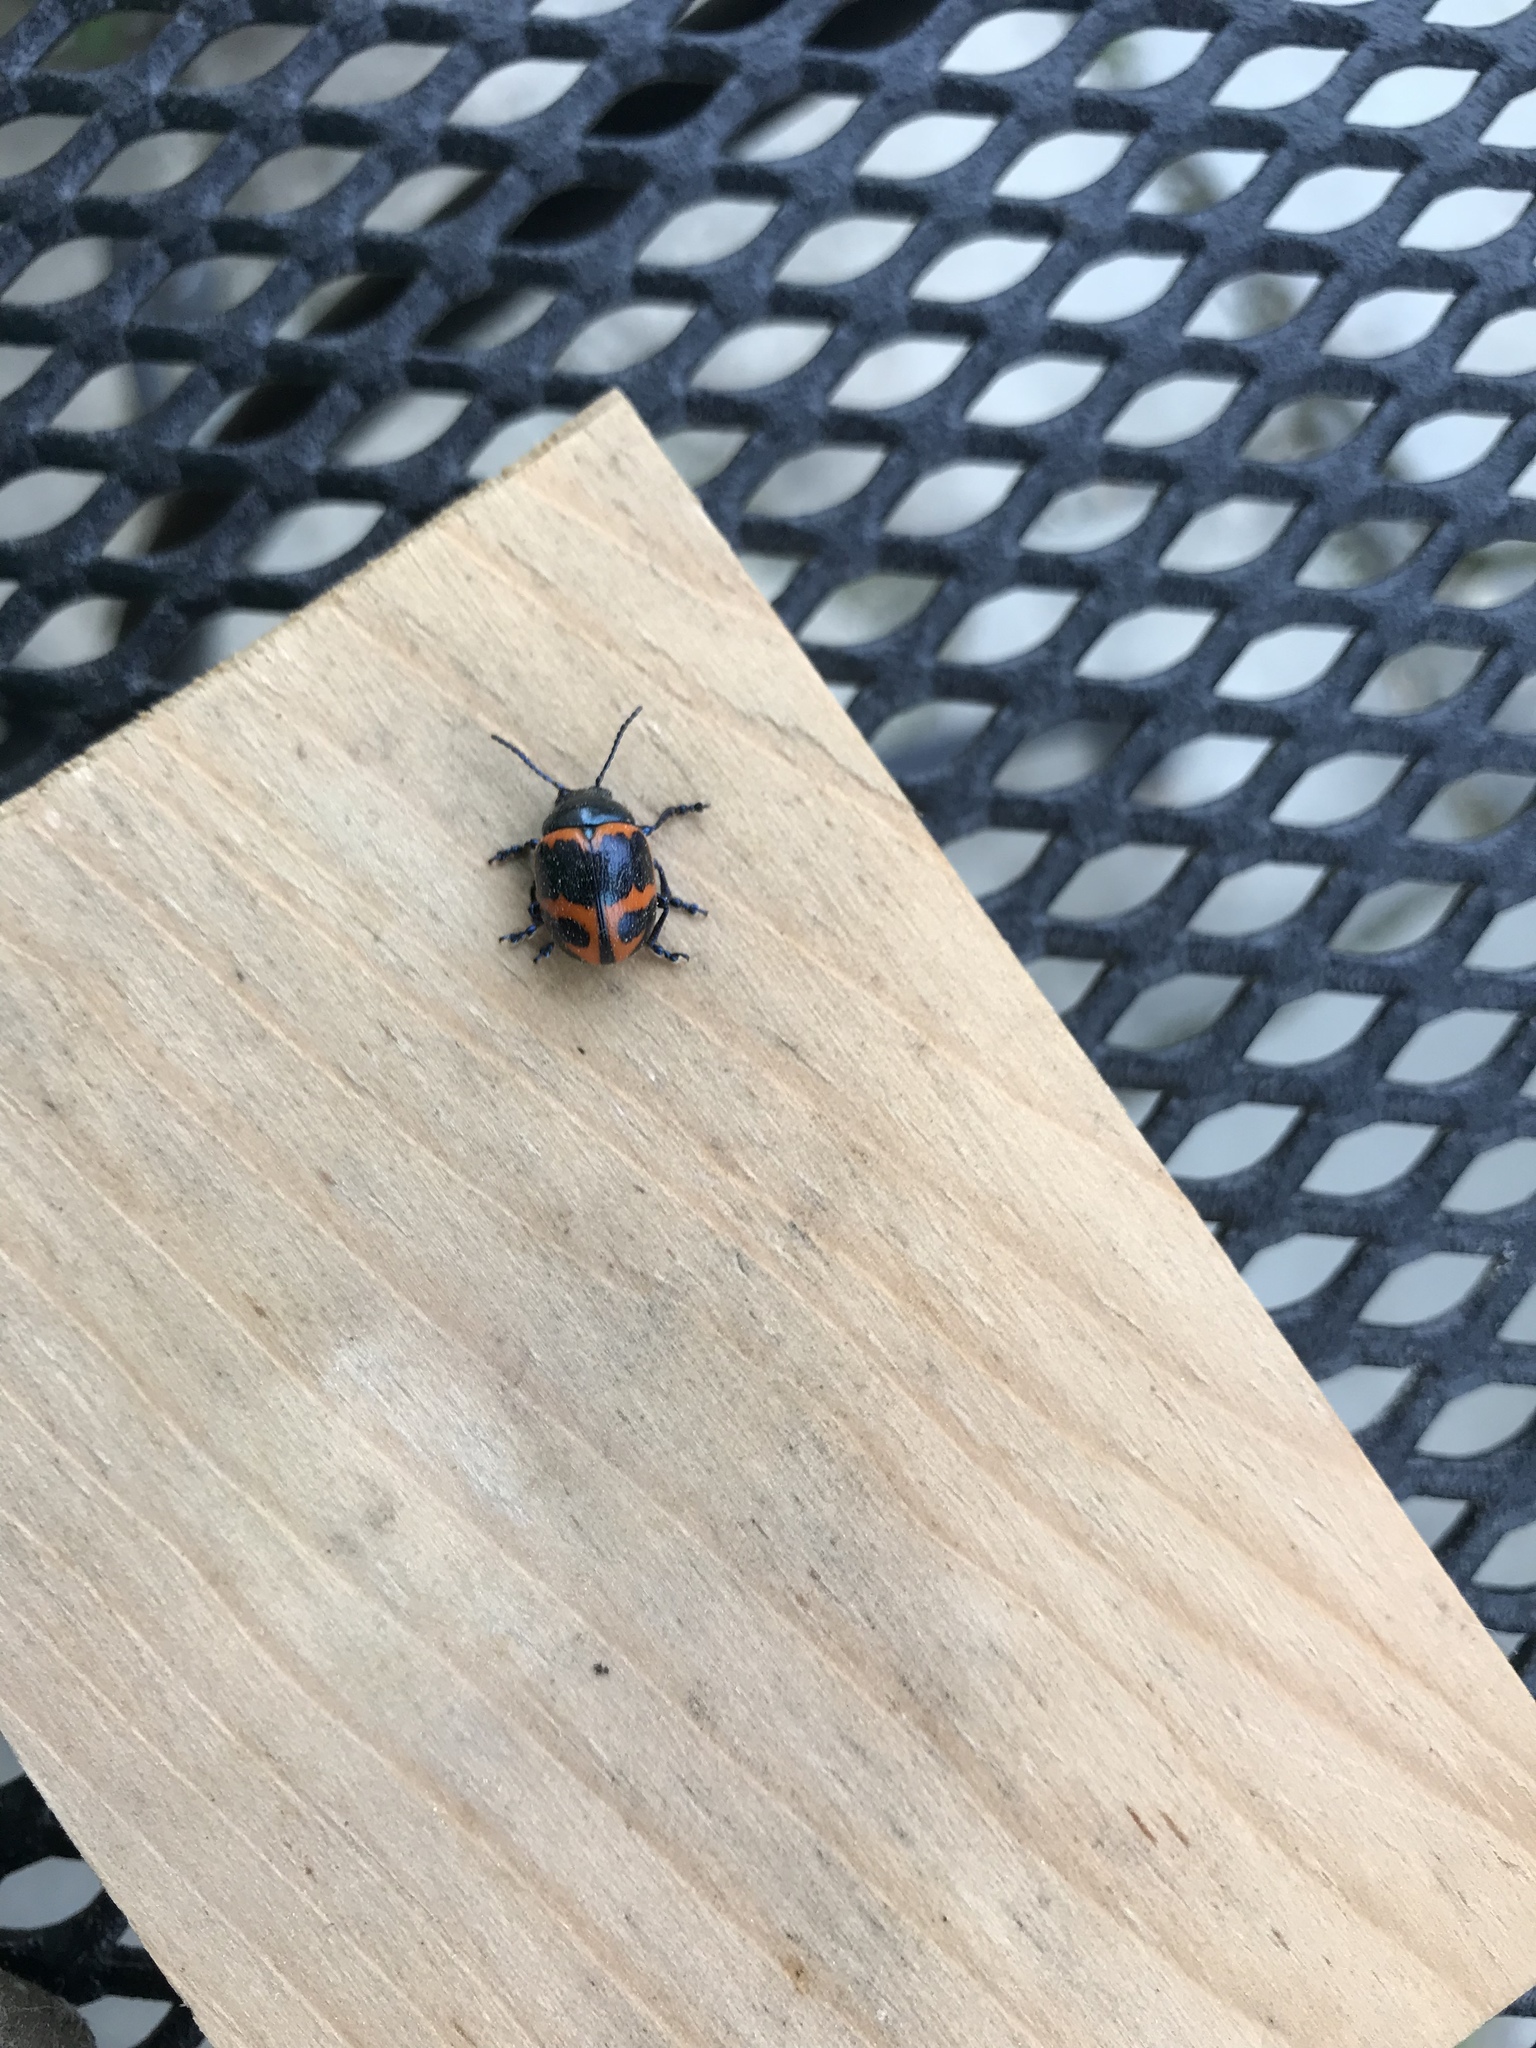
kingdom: Animalia
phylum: Arthropoda
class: Insecta
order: Coleoptera
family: Chrysomelidae
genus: Labidomera
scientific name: Labidomera clivicollis
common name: Swamp milkweed leaf beetle
